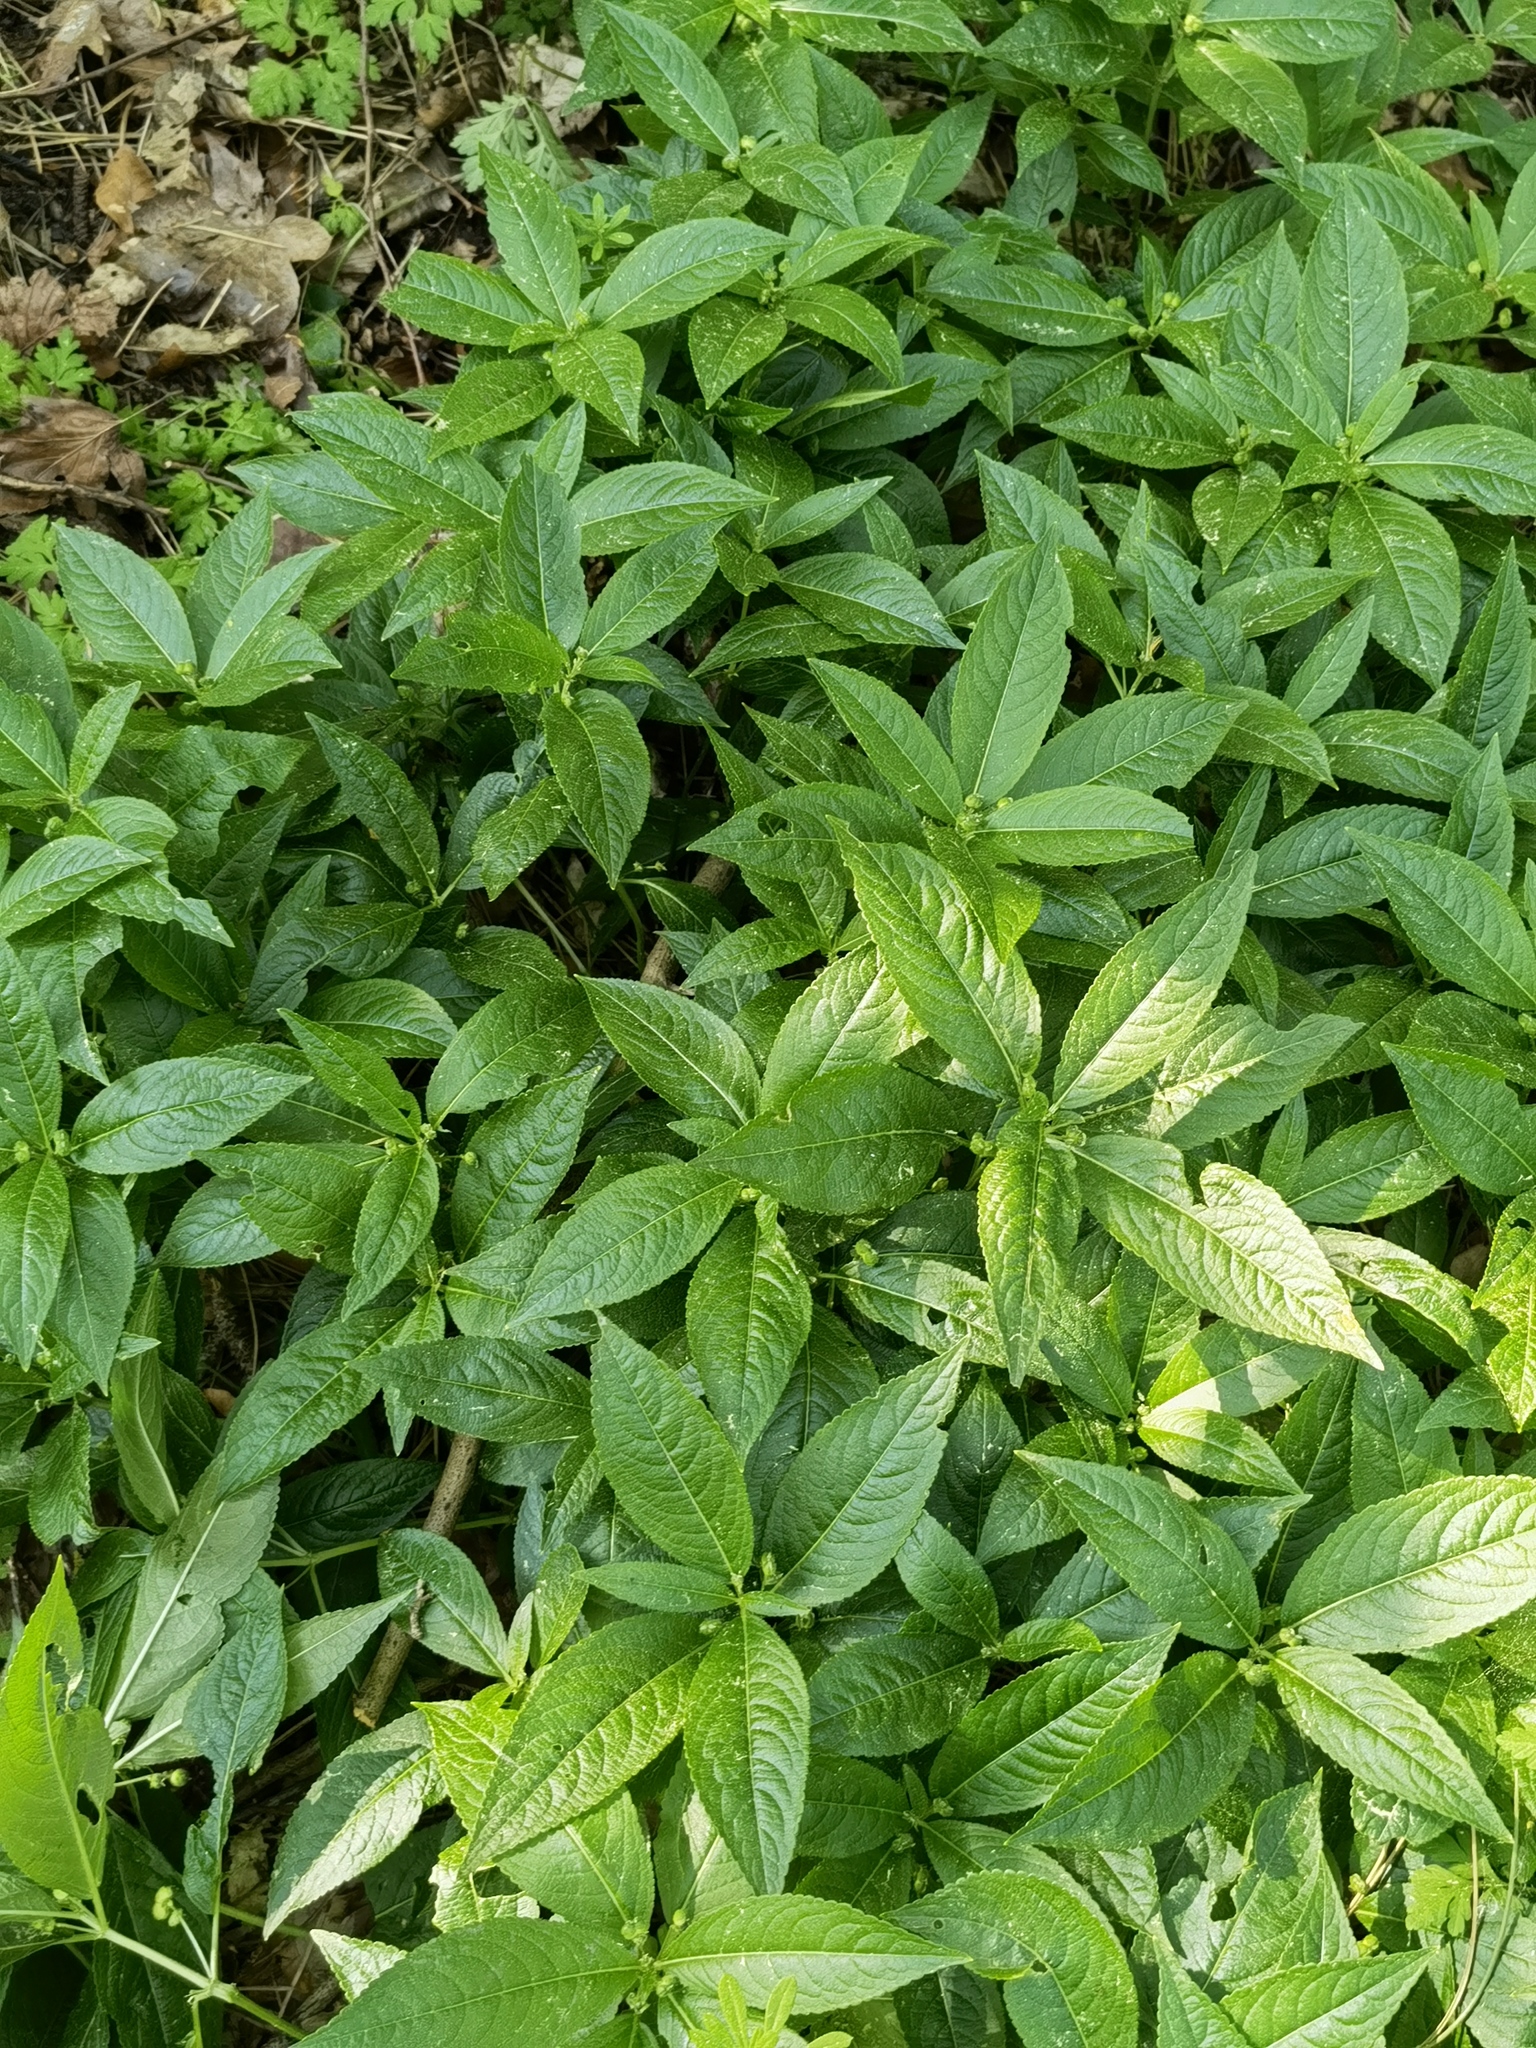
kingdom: Plantae
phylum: Tracheophyta
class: Magnoliopsida
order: Malpighiales
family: Euphorbiaceae
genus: Mercurialis
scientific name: Mercurialis perennis
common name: Dog mercury
